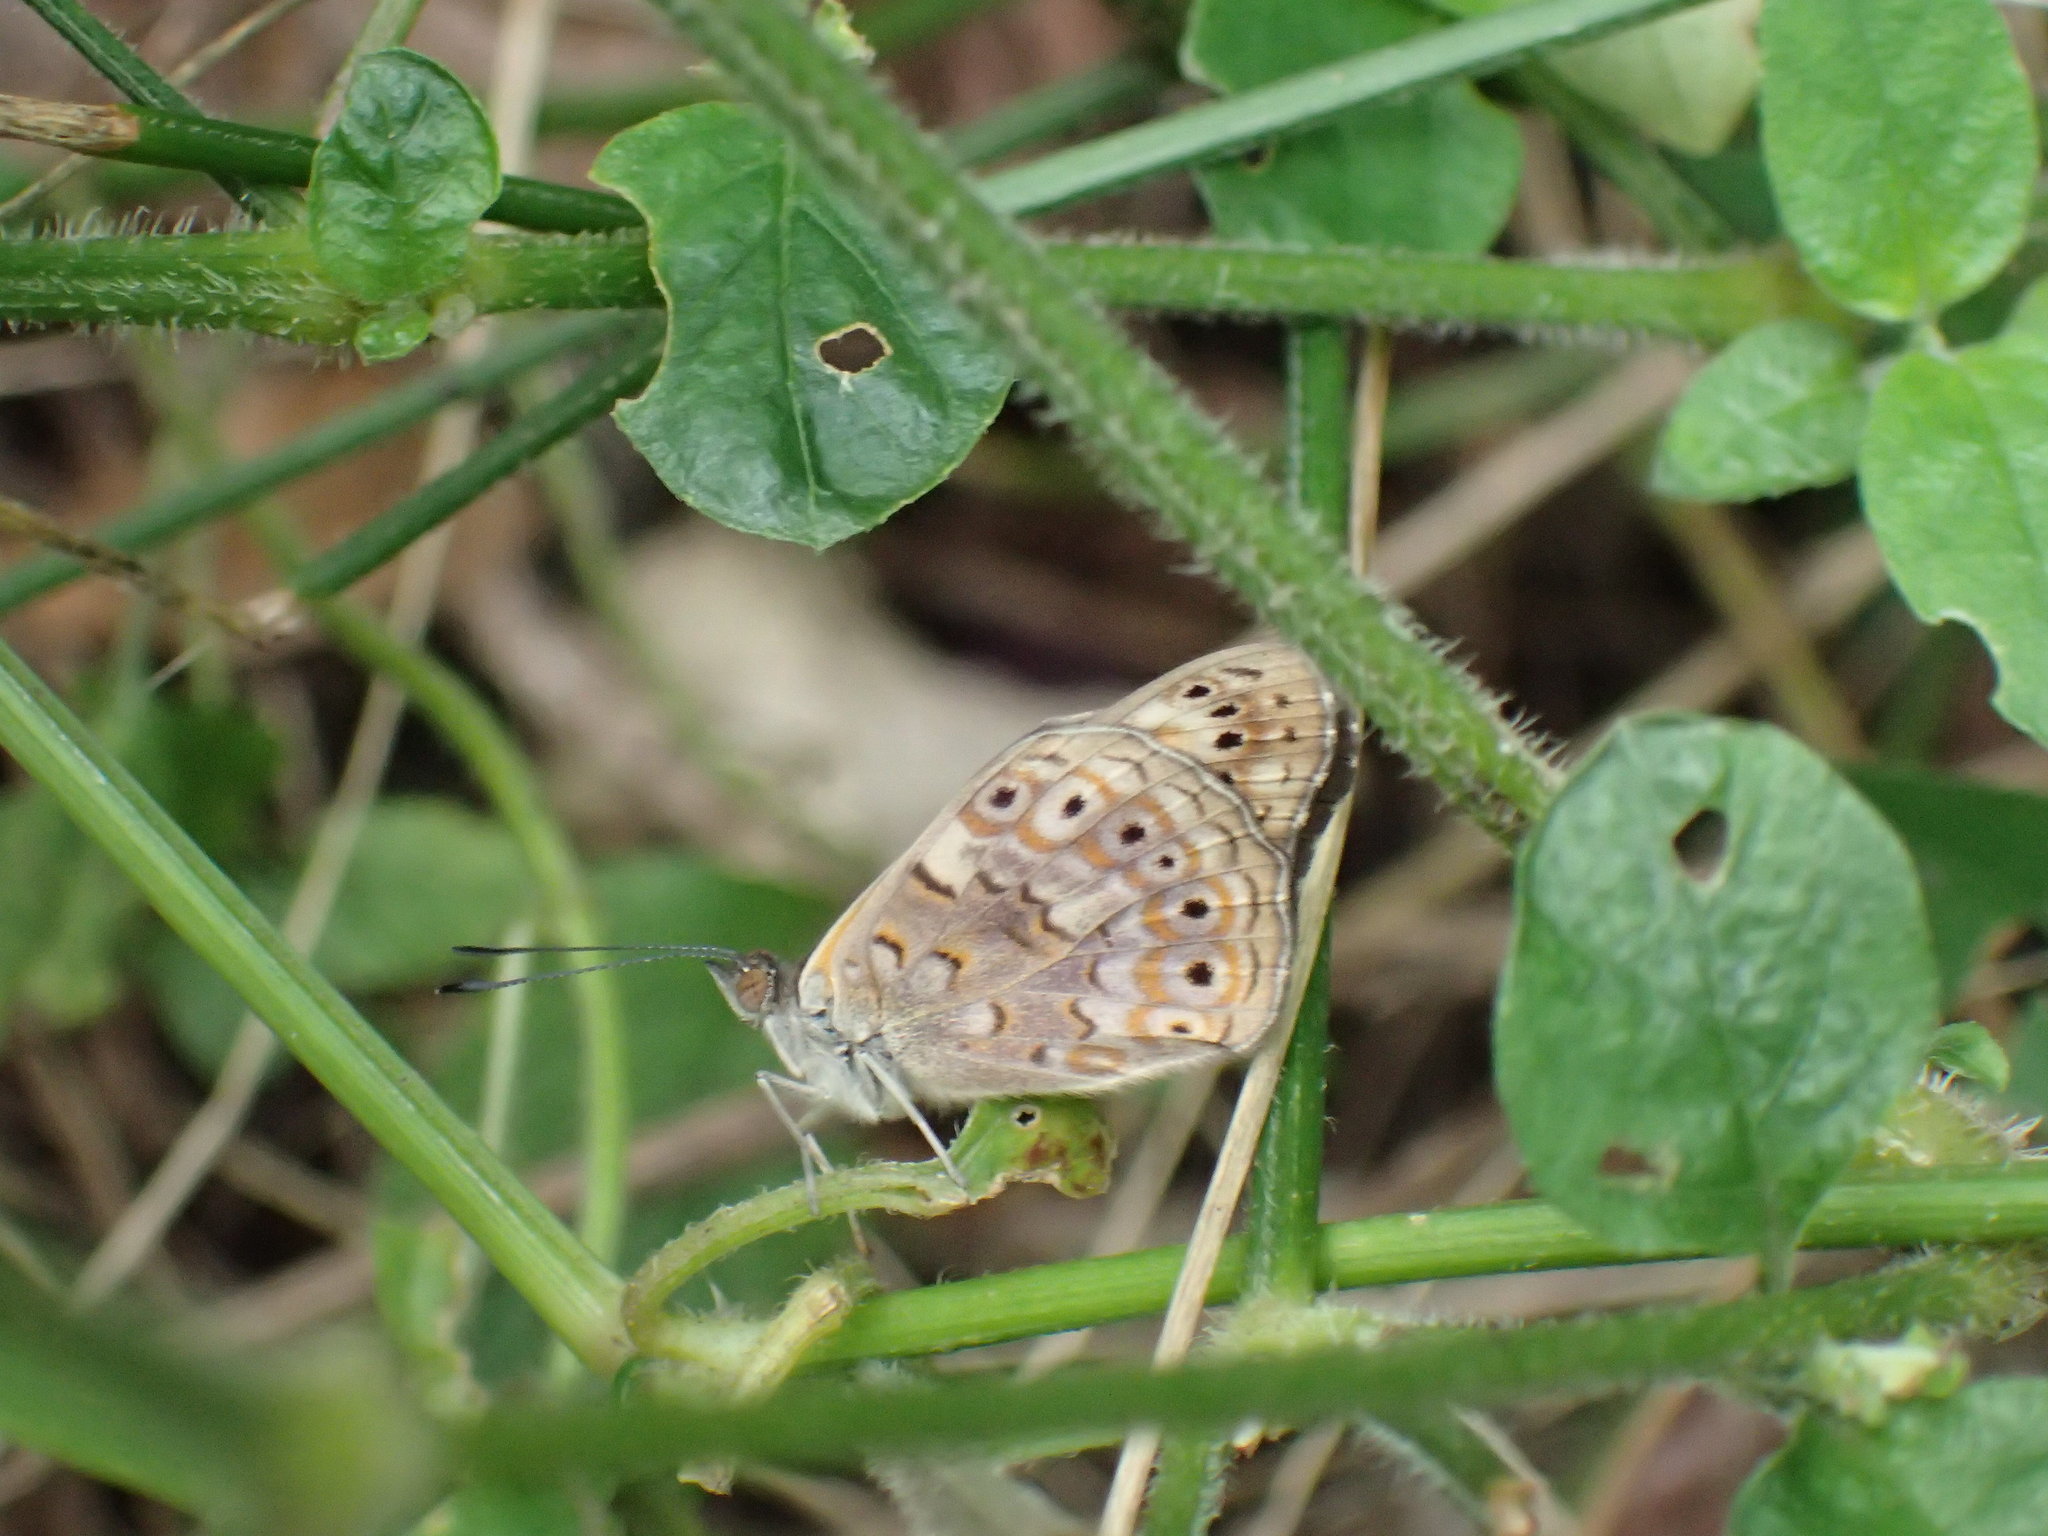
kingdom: Animalia
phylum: Arthropoda
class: Insecta
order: Lepidoptera
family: Nymphalidae
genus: Asterope
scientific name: Asterope boisduvali
